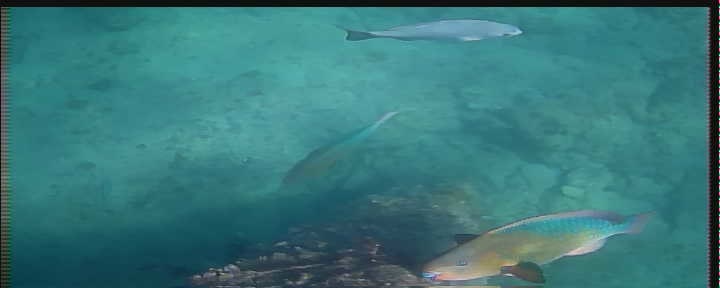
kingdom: Animalia
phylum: Chordata
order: Perciformes
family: Scaridae
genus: Scarus
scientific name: Scarus guacamaia
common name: Rainbow parrotfish
